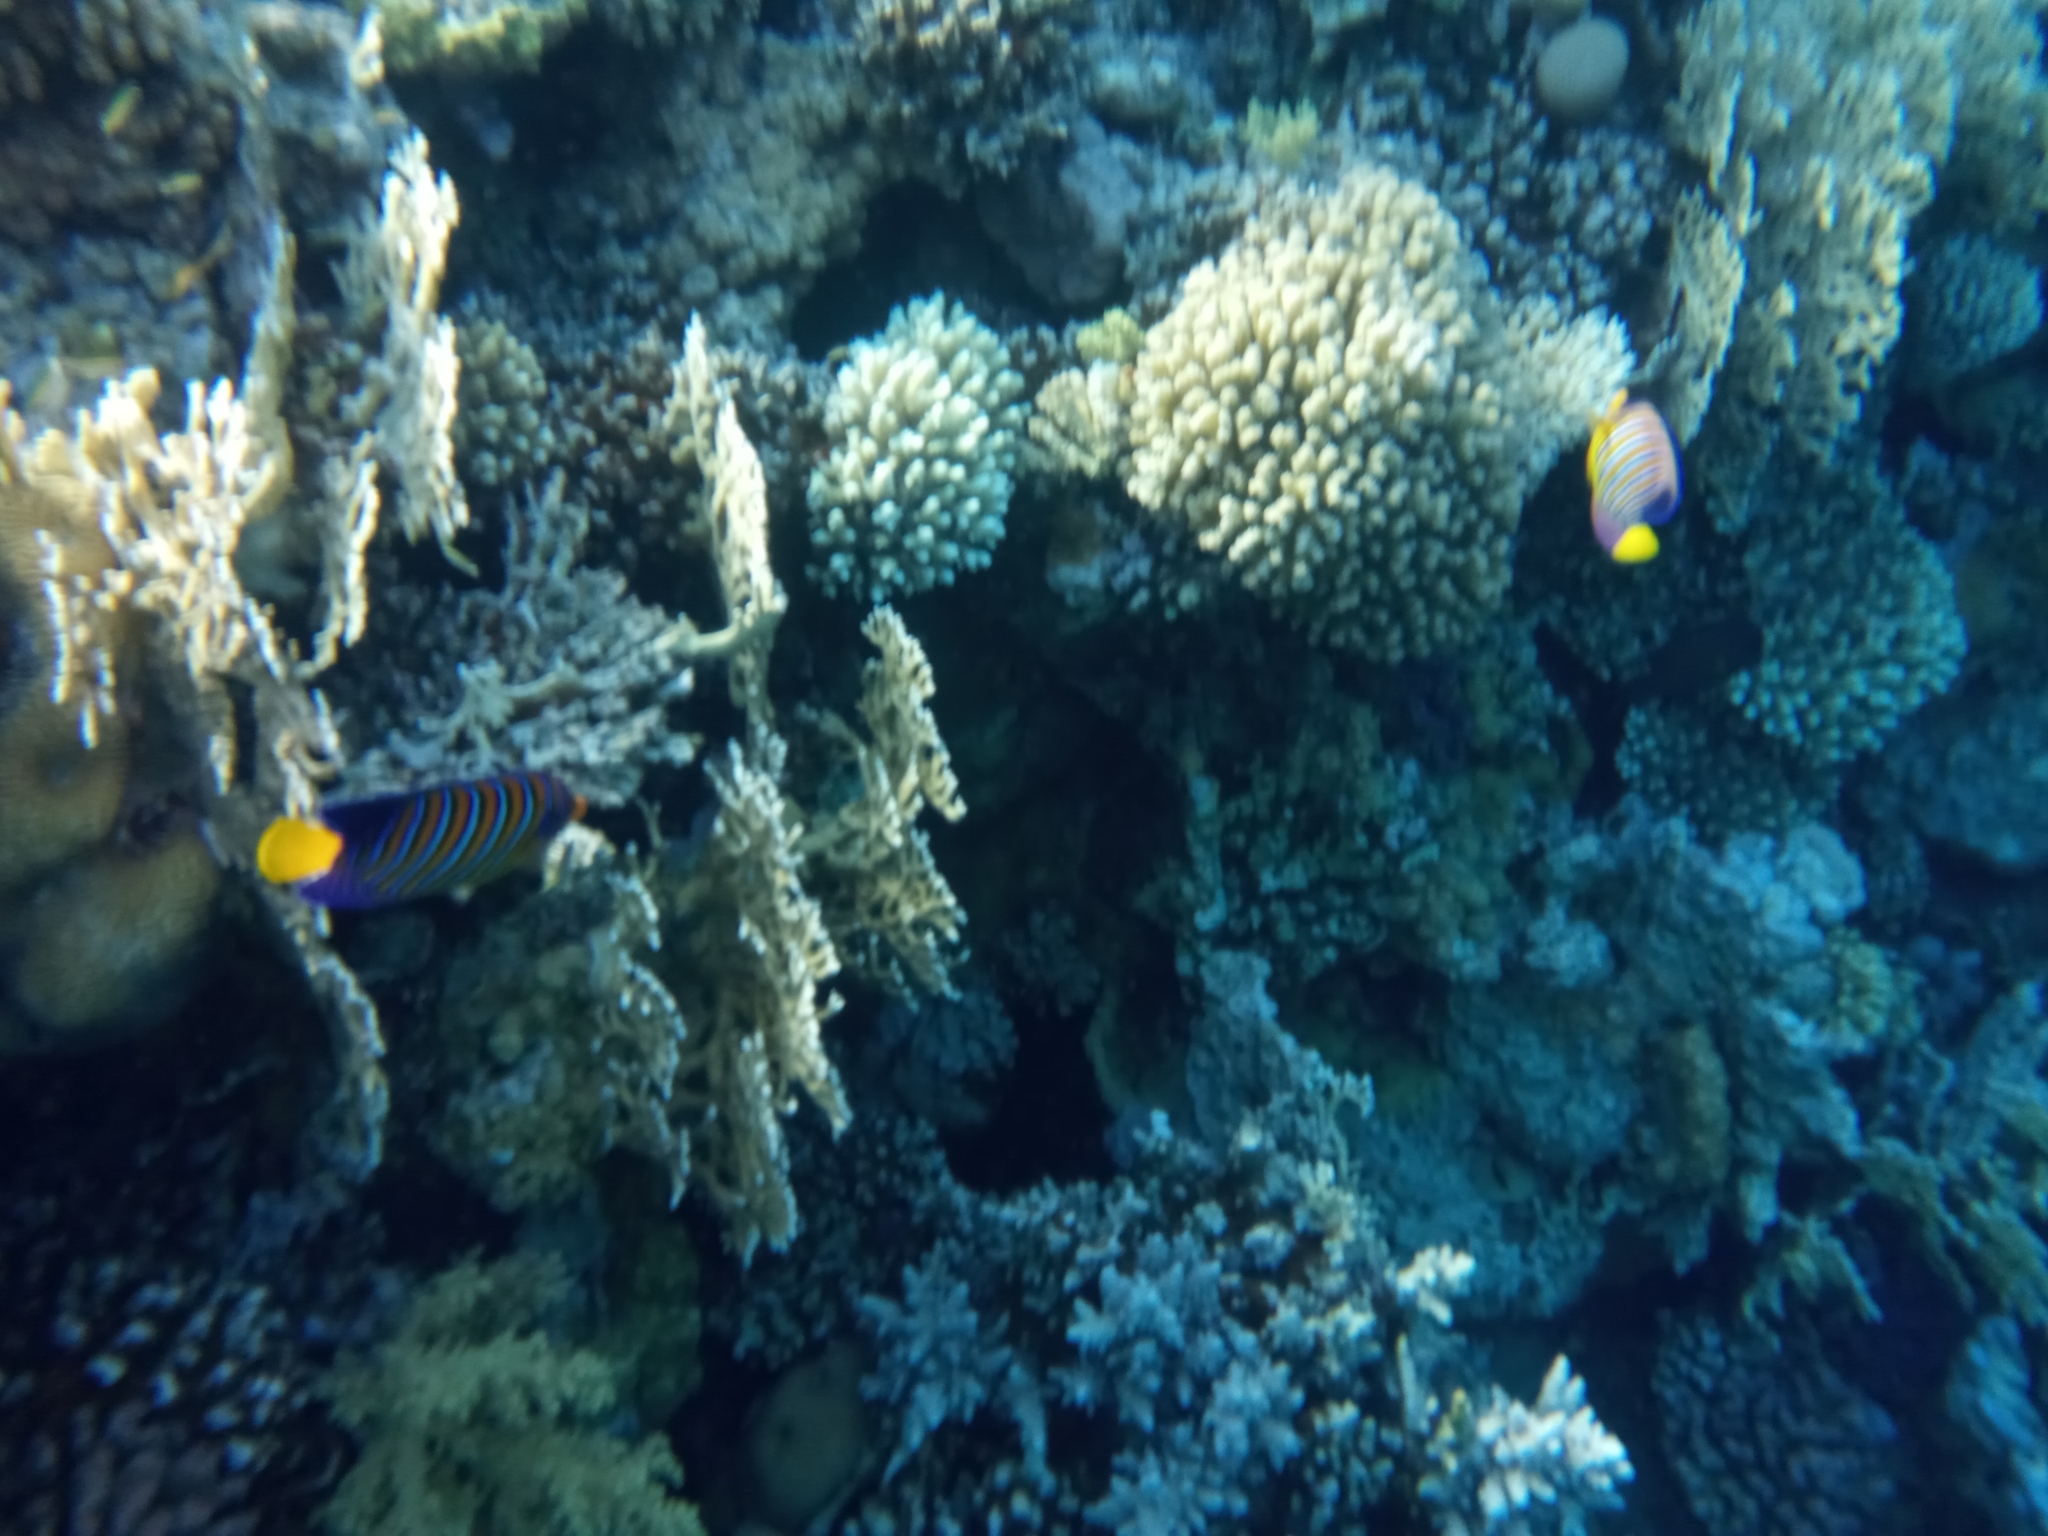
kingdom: Animalia
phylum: Chordata
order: Perciformes
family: Pomacanthidae
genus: Pygoplites
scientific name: Pygoplites diacanthus
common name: Regal angelfish
